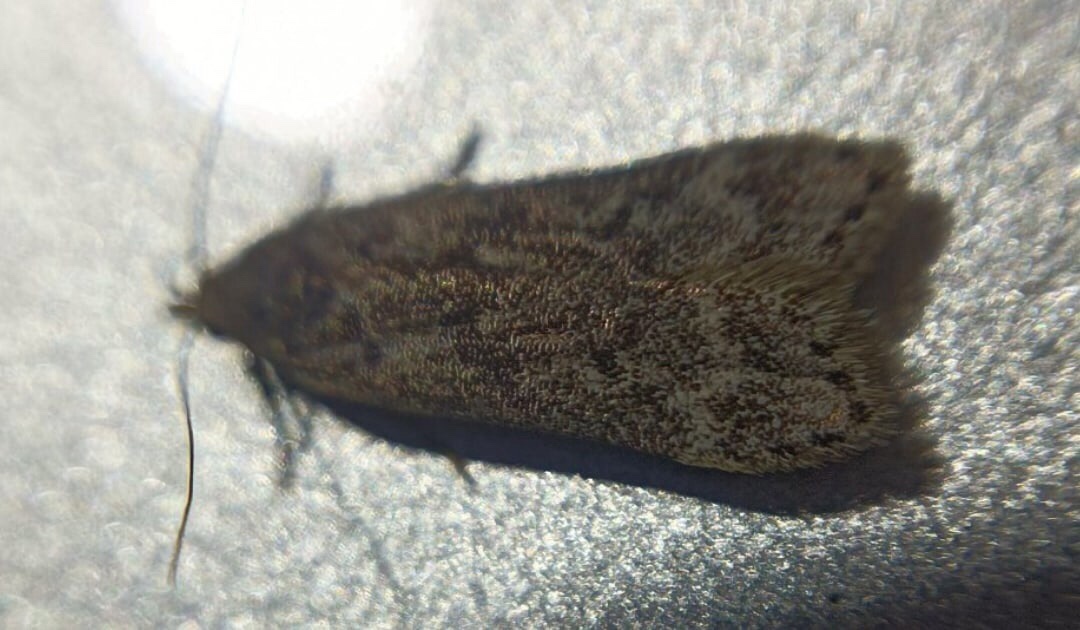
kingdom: Animalia
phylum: Arthropoda
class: Insecta
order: Lepidoptera
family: Gelechiidae
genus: Anacampsis
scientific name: Anacampsis populella
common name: Poplar leafroller
